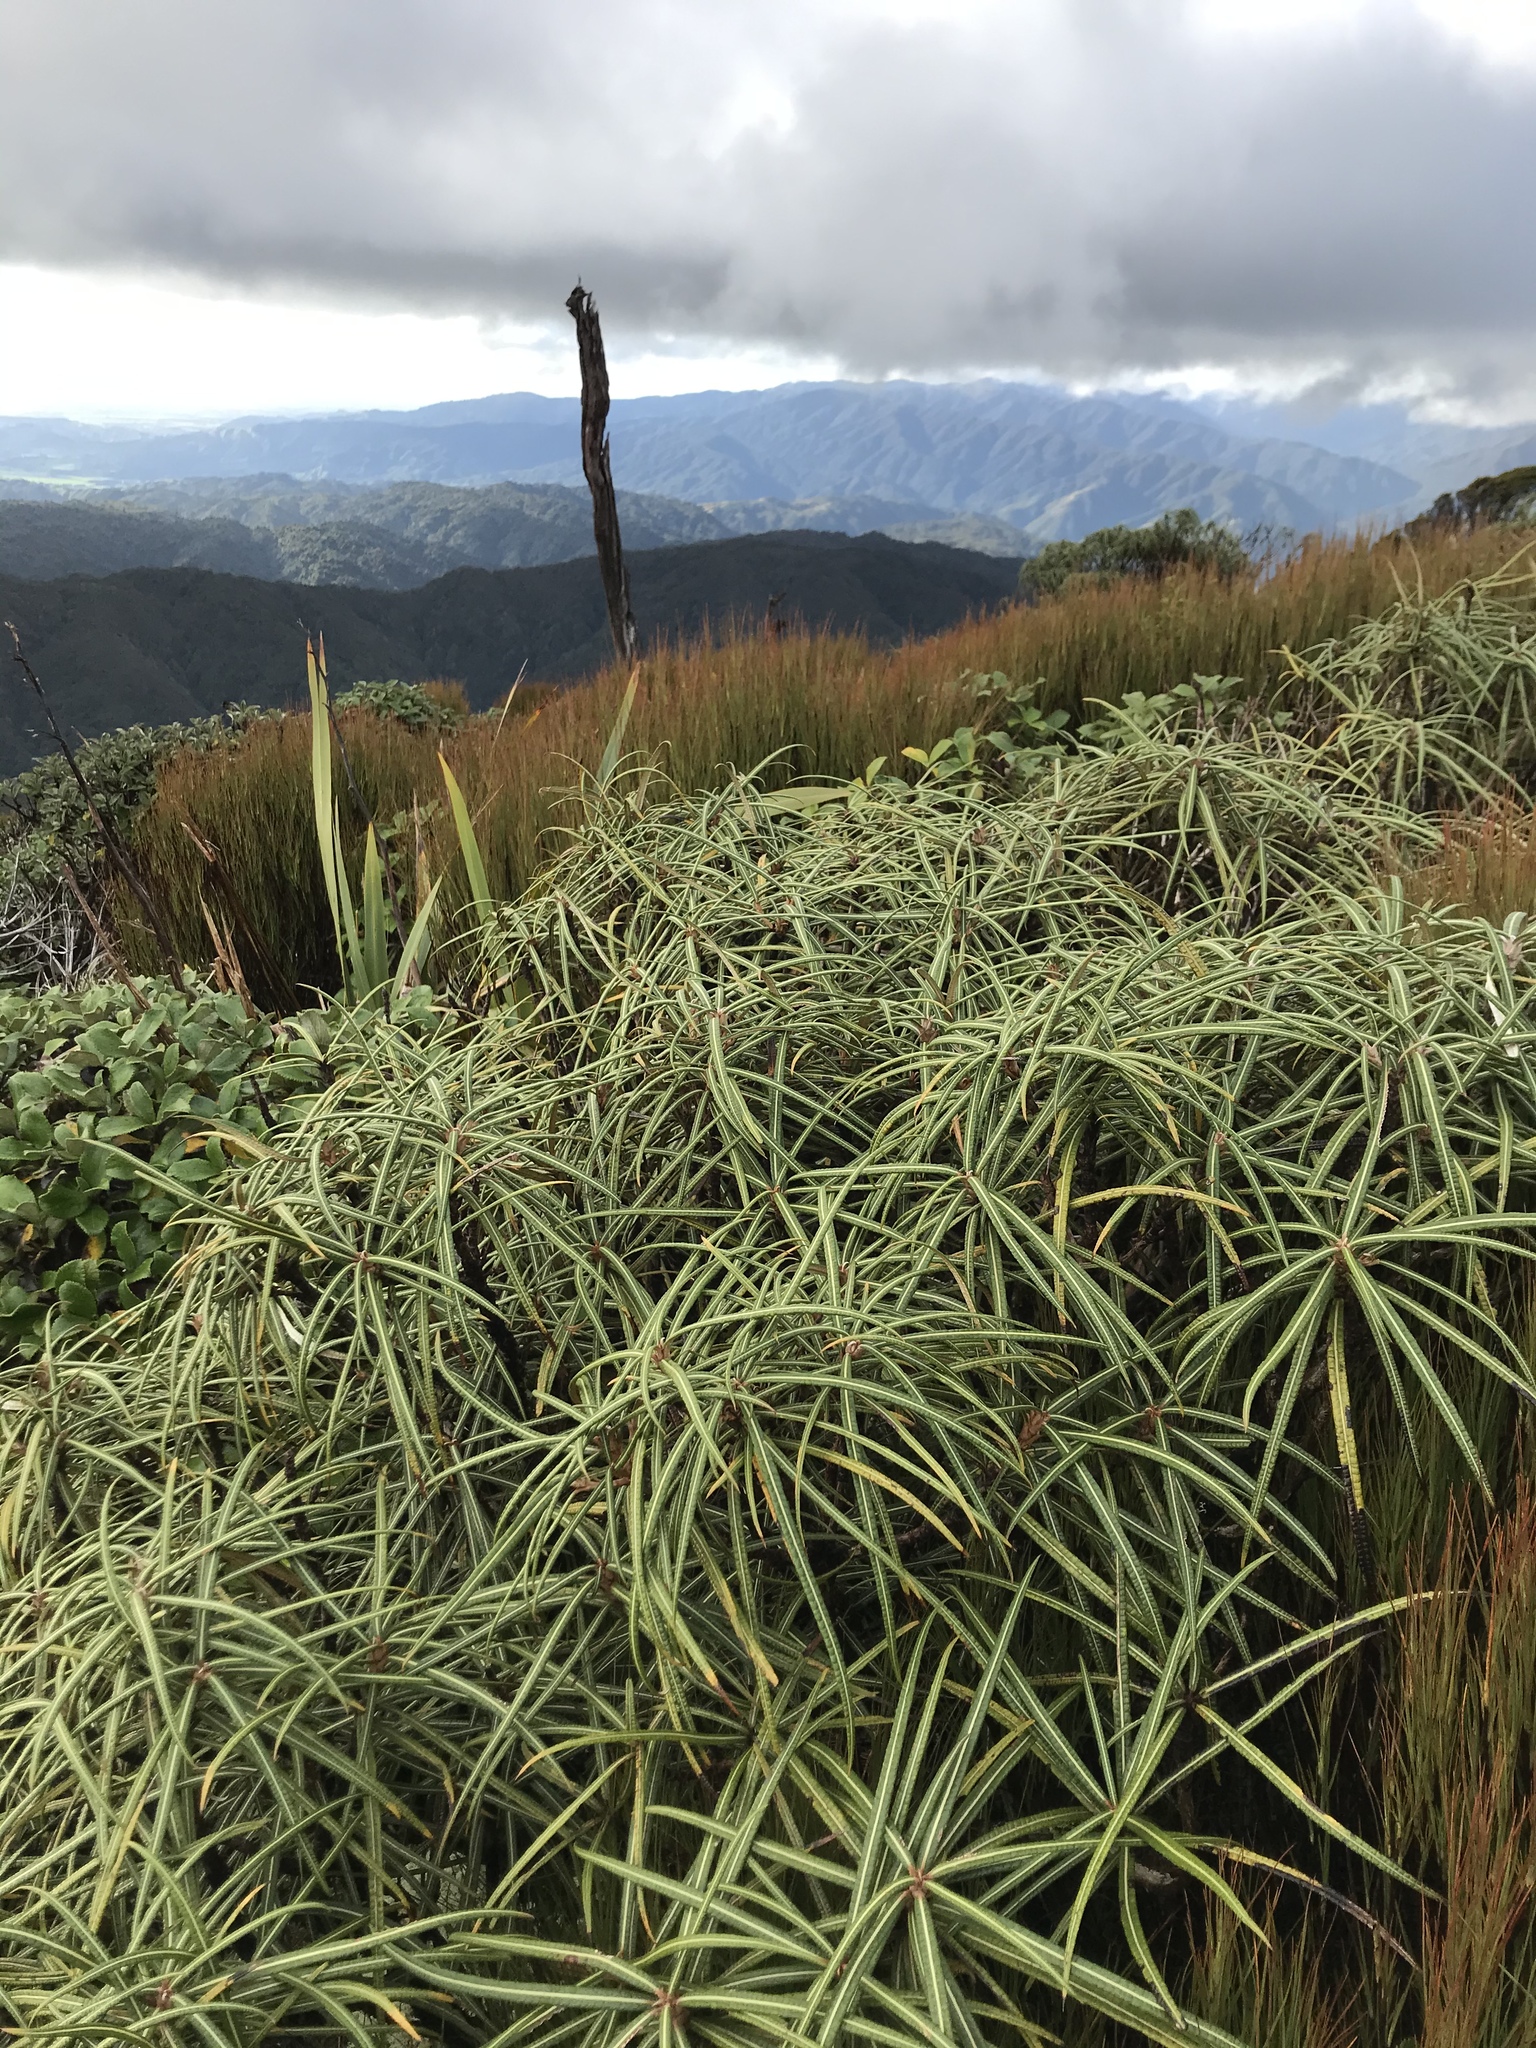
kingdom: Plantae
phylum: Tracheophyta
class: Magnoliopsida
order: Asterales
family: Asteraceae
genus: Olearia
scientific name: Olearia lacunosa
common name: Lancewood tree daisy
